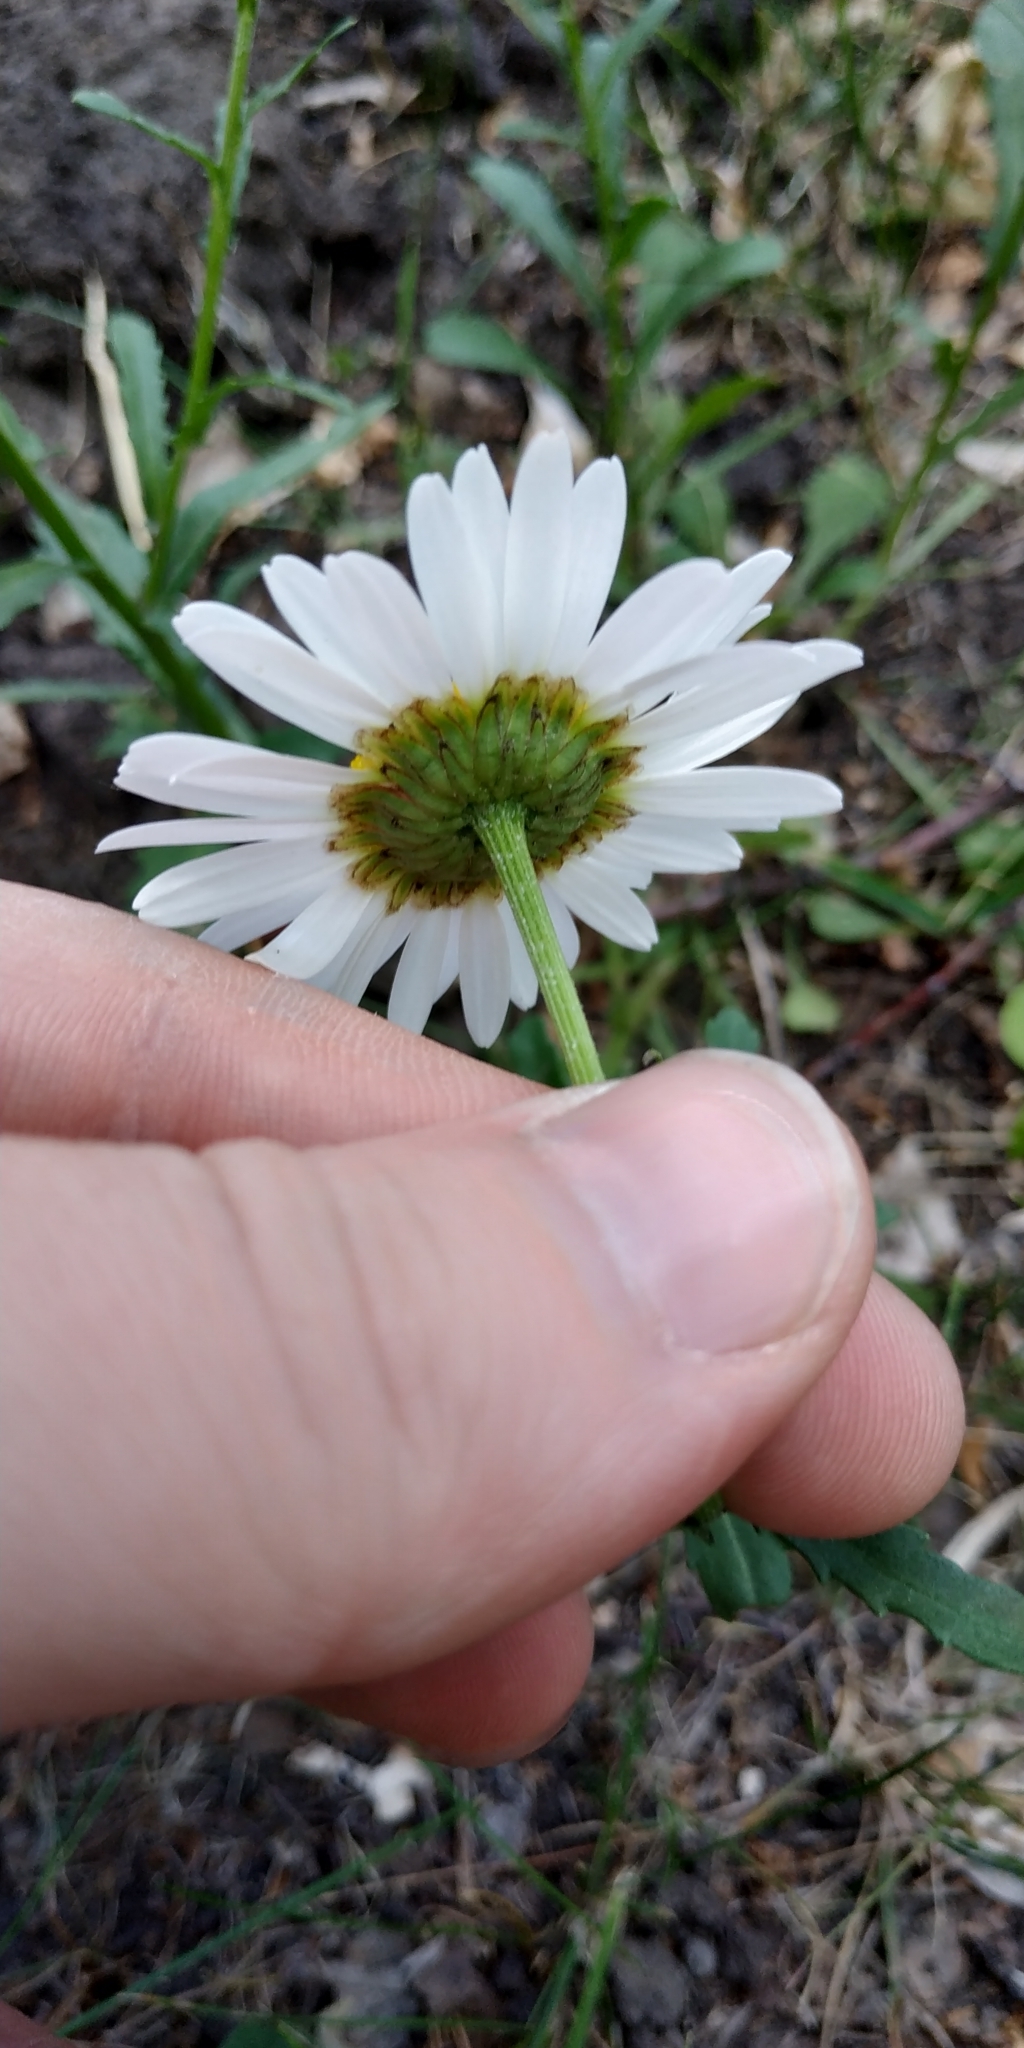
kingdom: Plantae
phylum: Tracheophyta
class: Magnoliopsida
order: Asterales
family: Asteraceae
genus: Leucanthemum
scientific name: Leucanthemum vulgare
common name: Oxeye daisy
